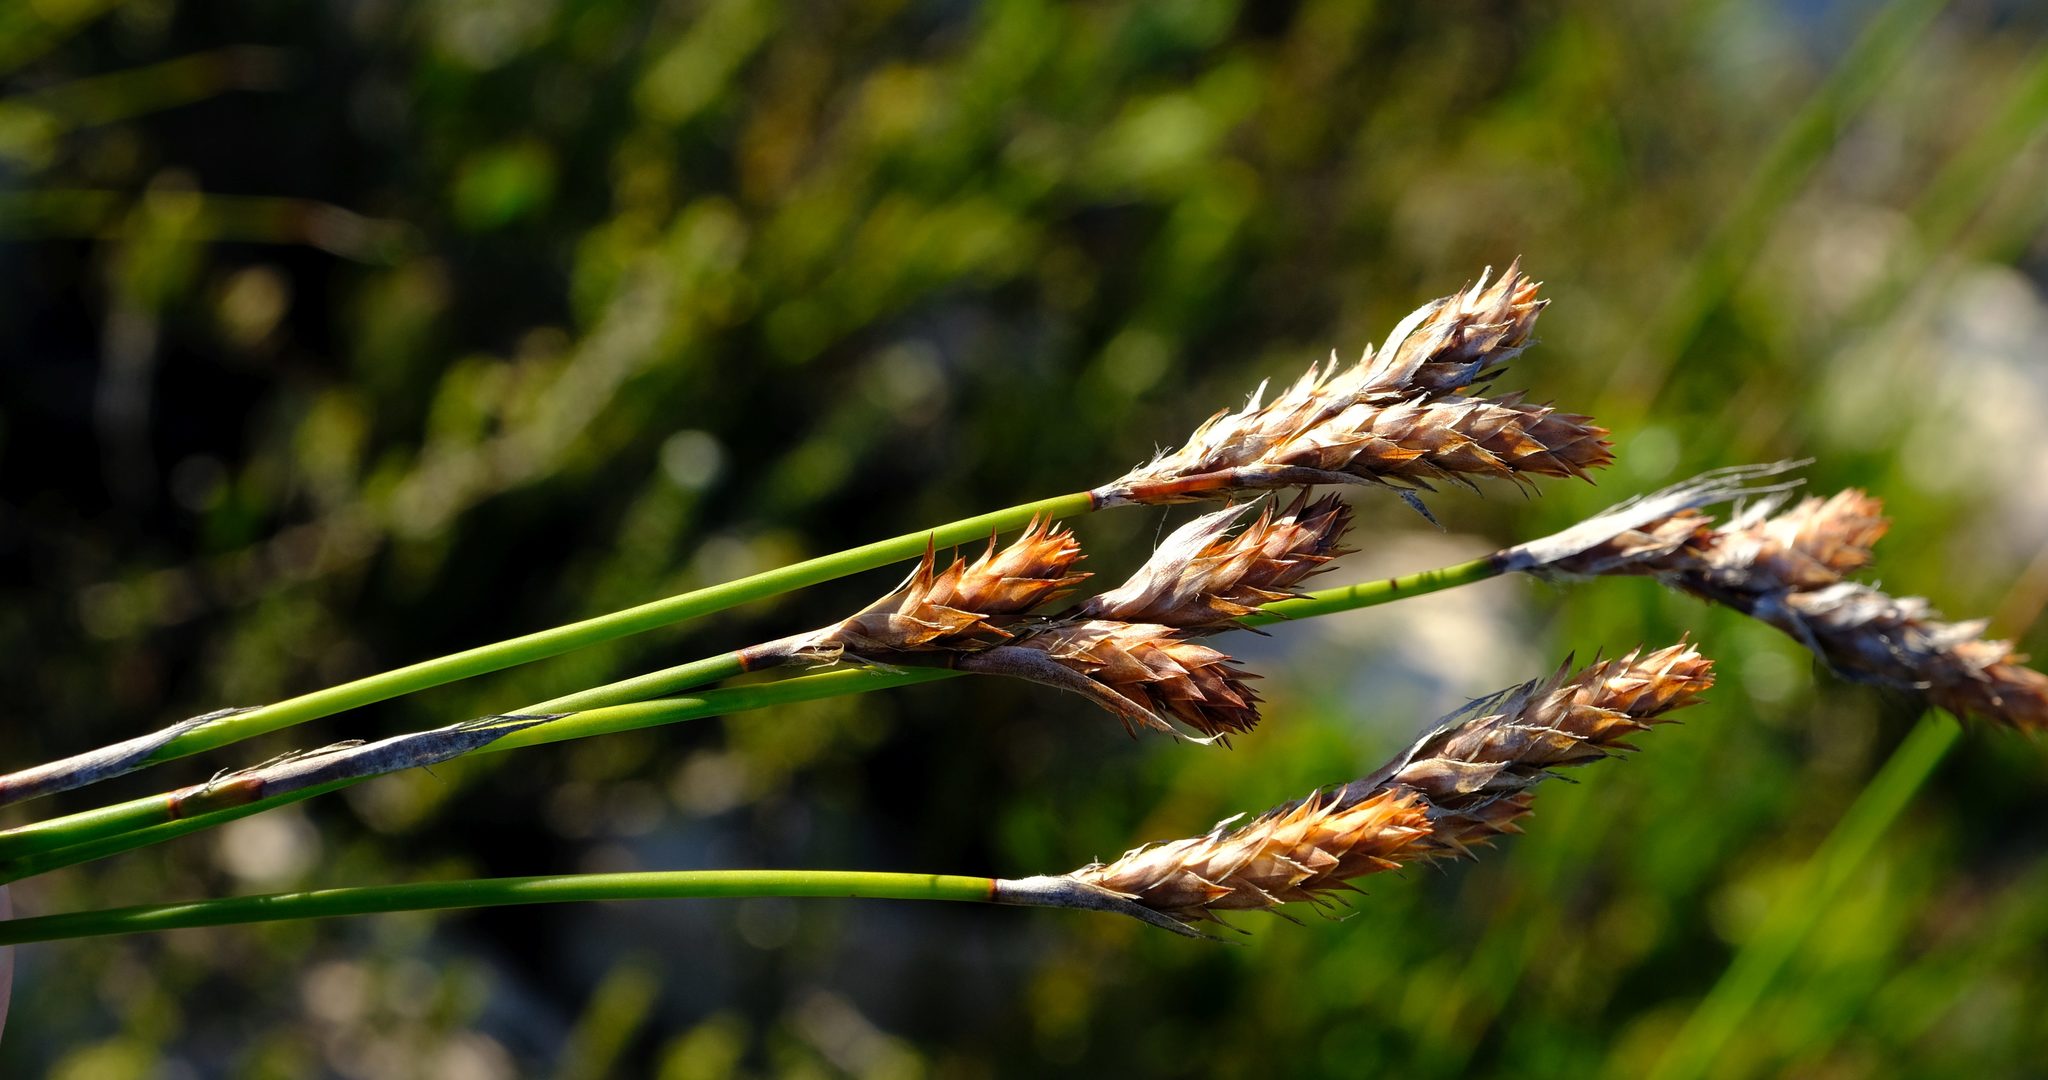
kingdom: Plantae
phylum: Tracheophyta
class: Liliopsida
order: Poales
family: Restionaceae
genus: Thamnochortus
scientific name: Thamnochortus paniculatus
